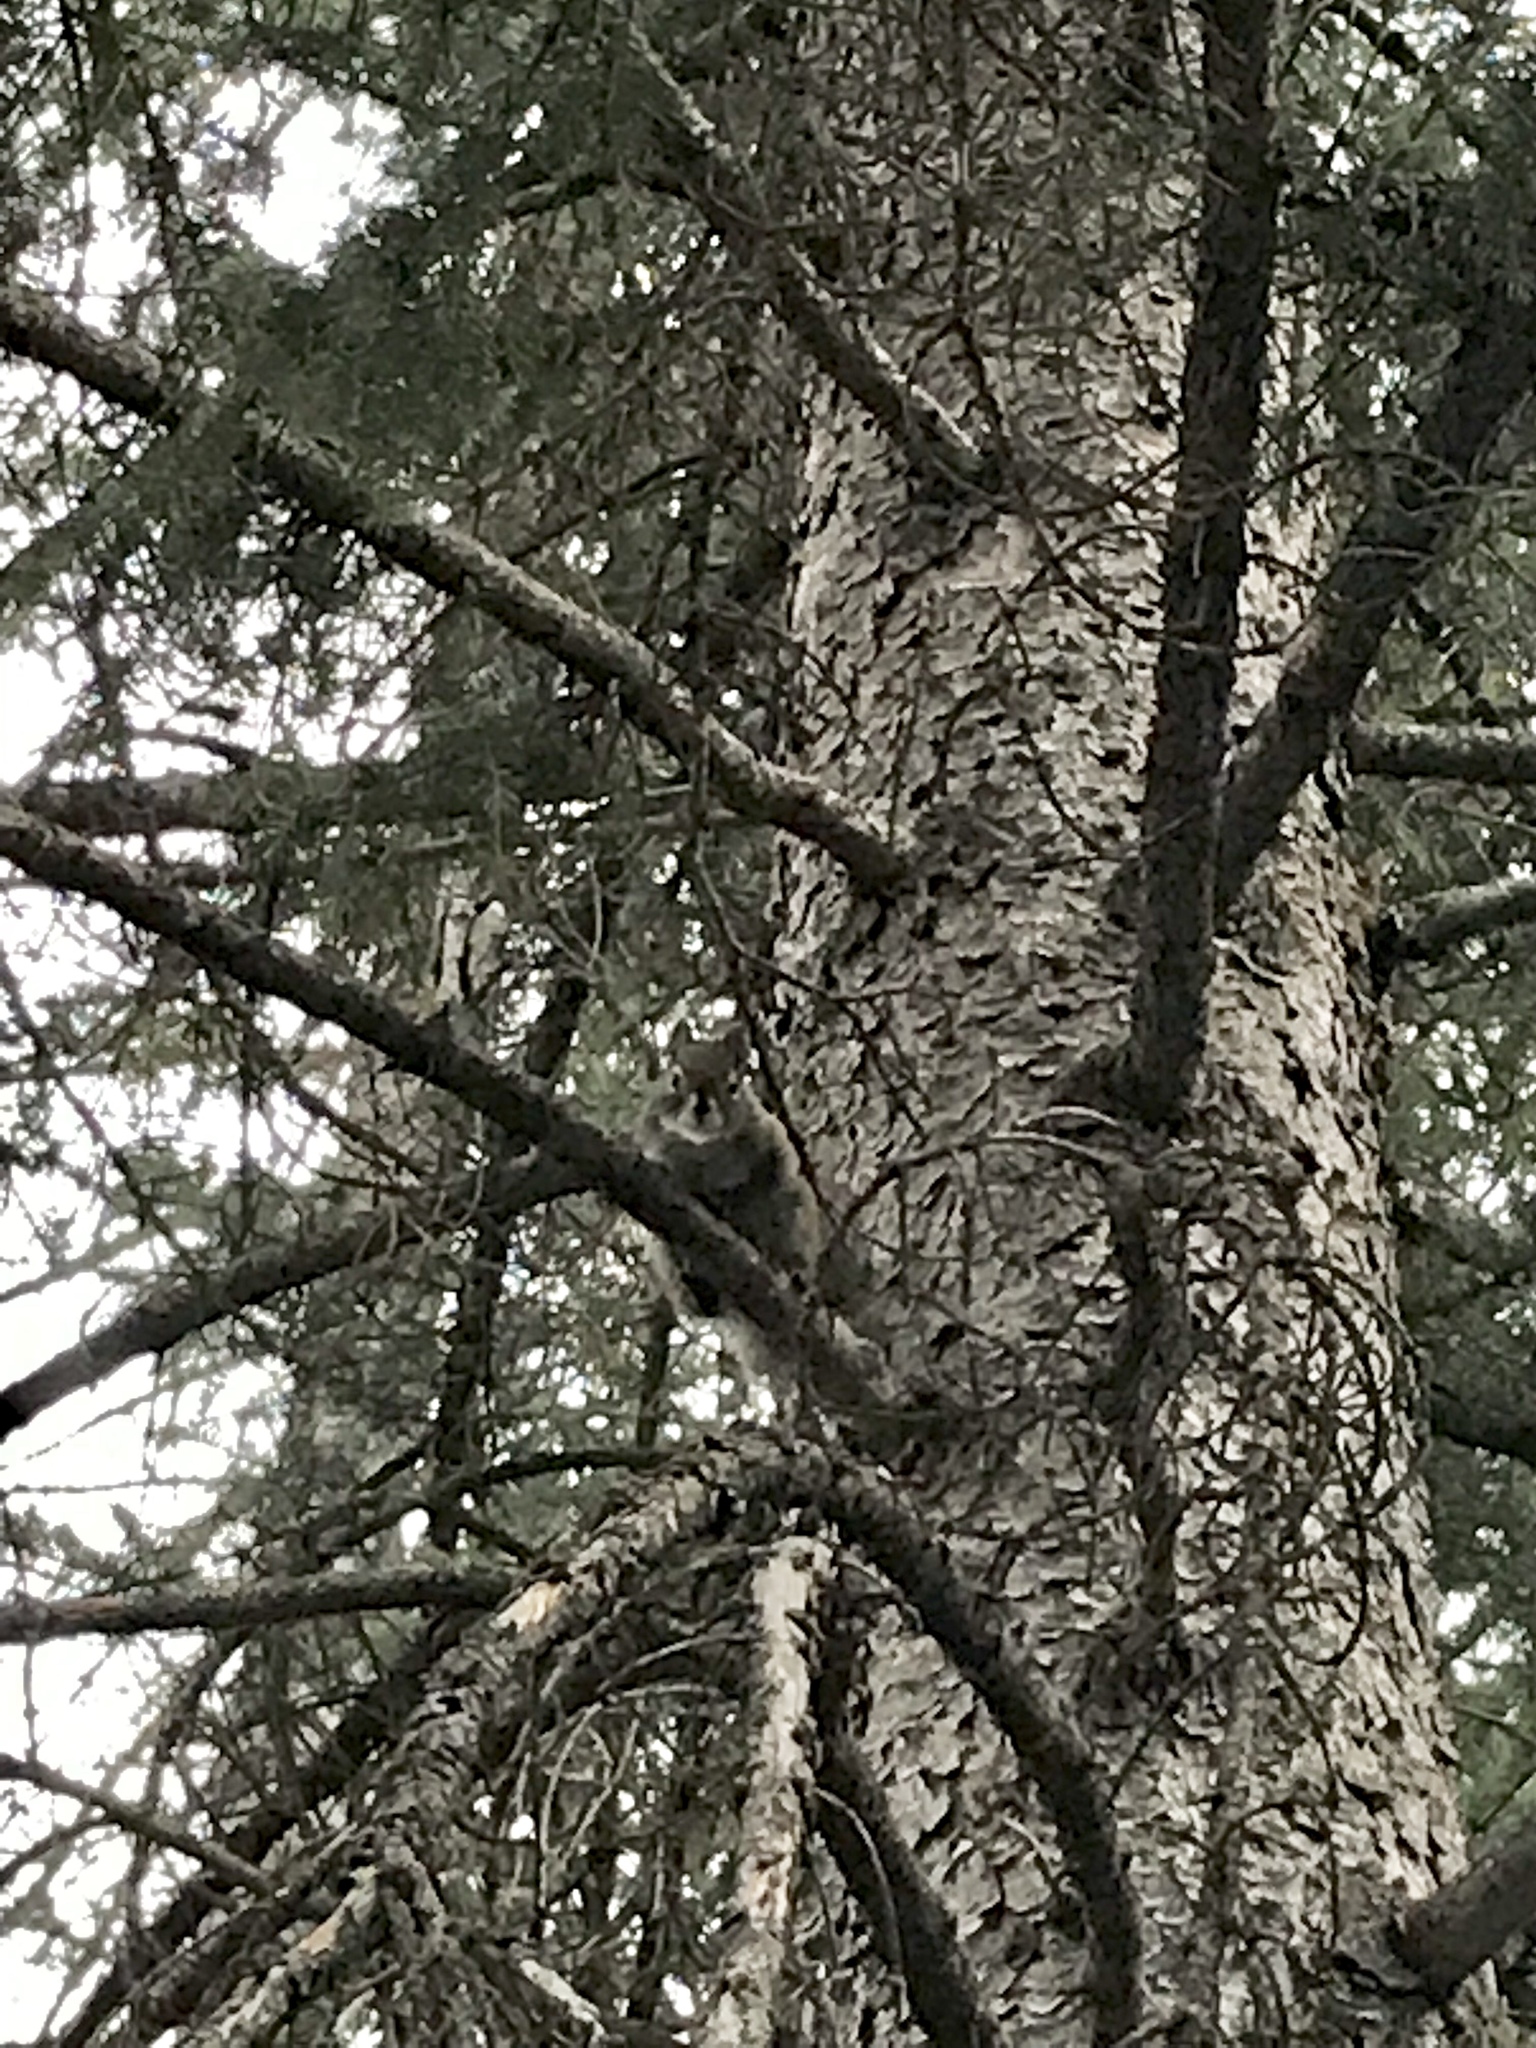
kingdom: Animalia
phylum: Chordata
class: Mammalia
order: Rodentia
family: Sciuridae
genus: Tamiasciurus
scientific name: Tamiasciurus hudsonicus
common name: Red squirrel
